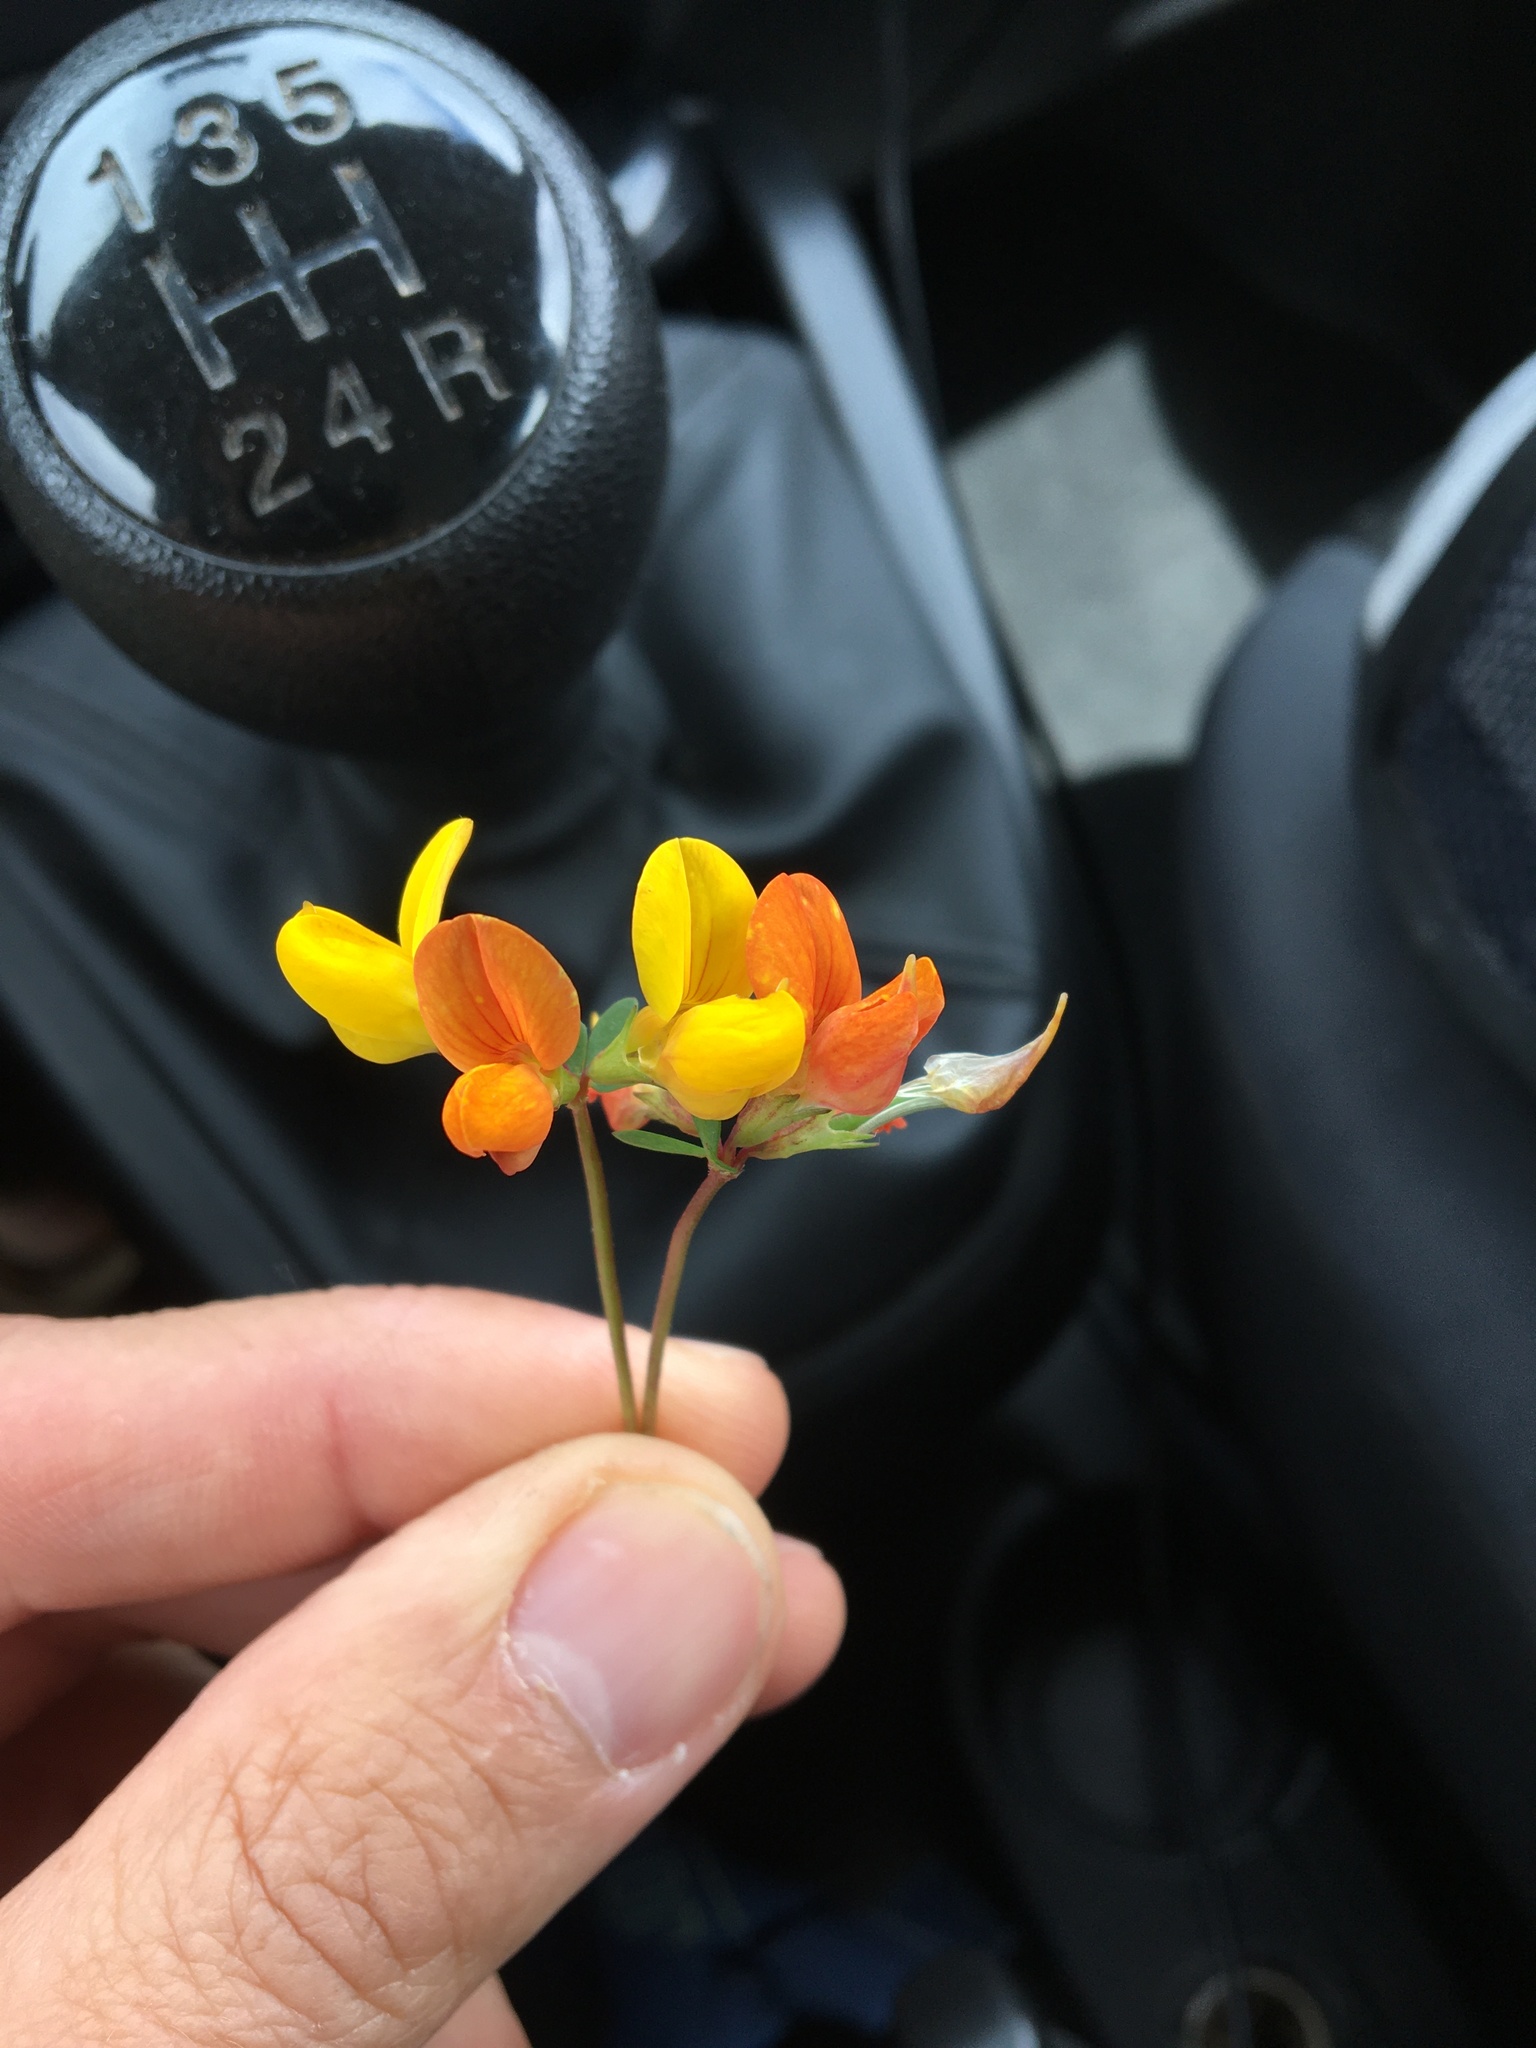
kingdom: Plantae
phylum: Tracheophyta
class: Magnoliopsida
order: Fabales
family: Fabaceae
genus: Lotus
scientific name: Lotus corniculatus
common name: Common bird's-foot-trefoil
